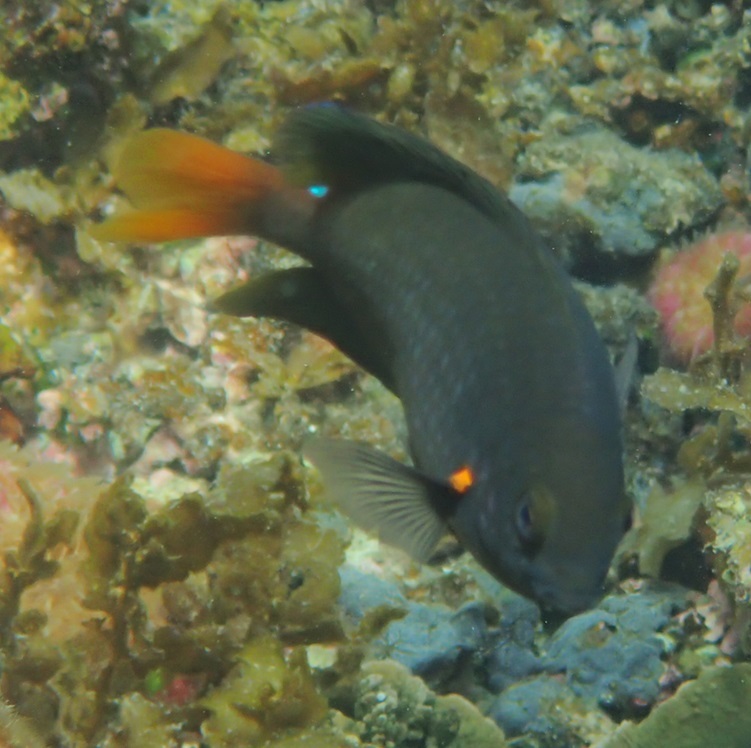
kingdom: Animalia
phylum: Chordata
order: Perciformes
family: Pomacentridae
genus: Pomacentrus
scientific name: Pomacentrus grammorhynchus
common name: Blue-spot damsel
